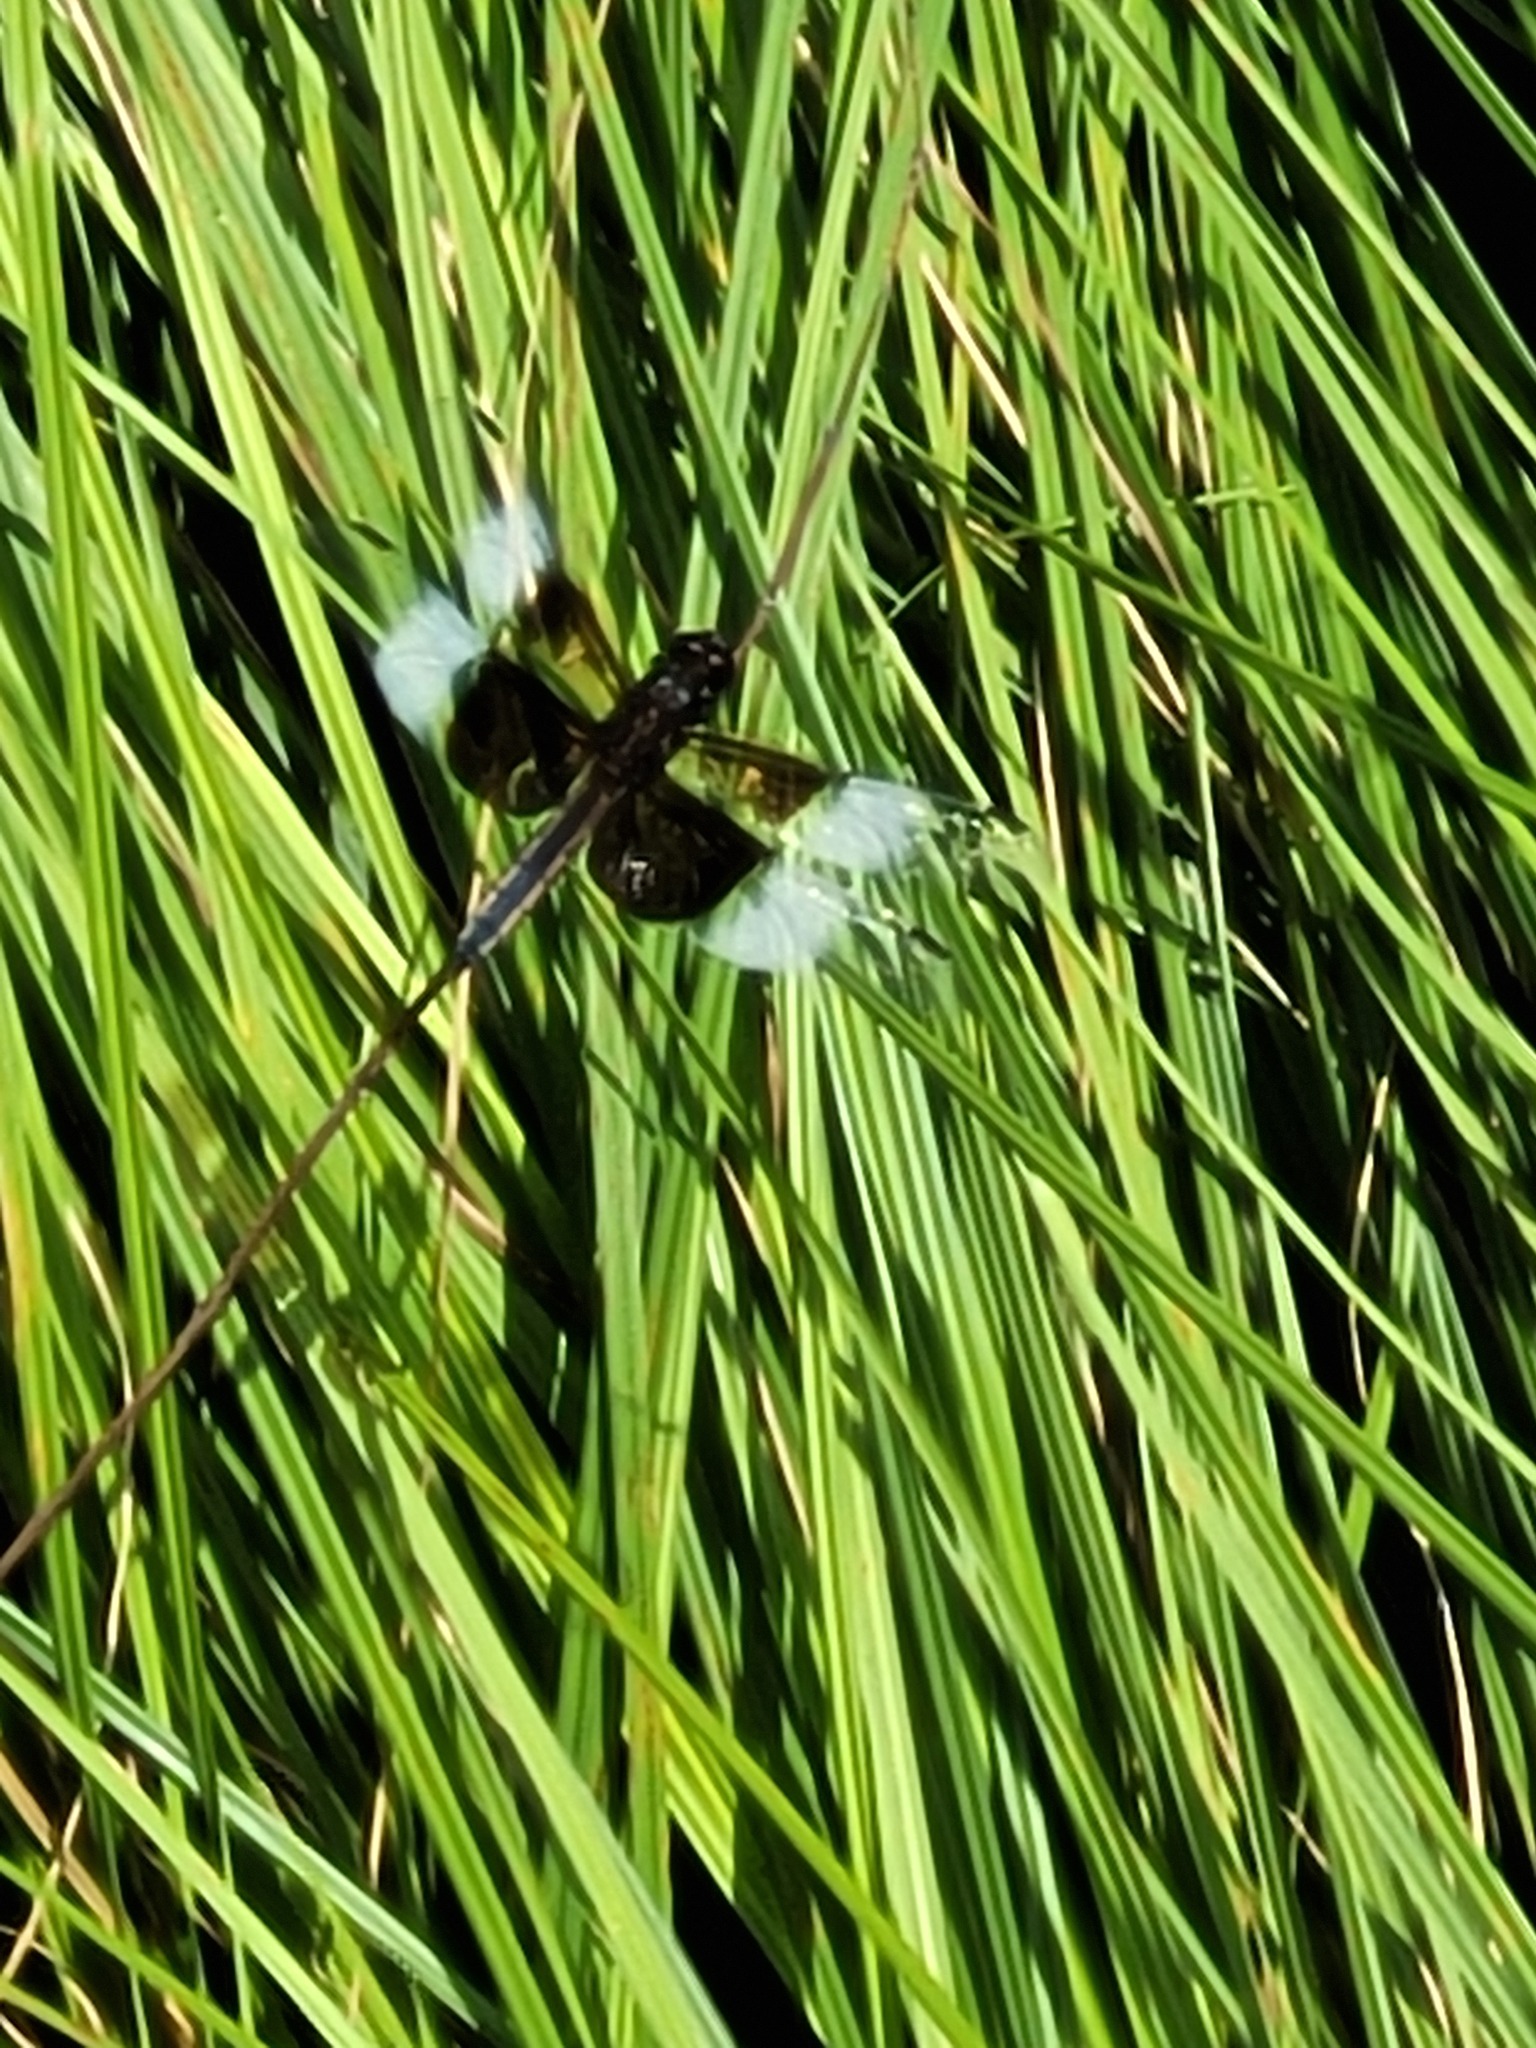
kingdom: Animalia
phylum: Arthropoda
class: Insecta
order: Odonata
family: Libellulidae
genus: Libellula
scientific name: Libellula luctuosa
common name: Widow skimmer
